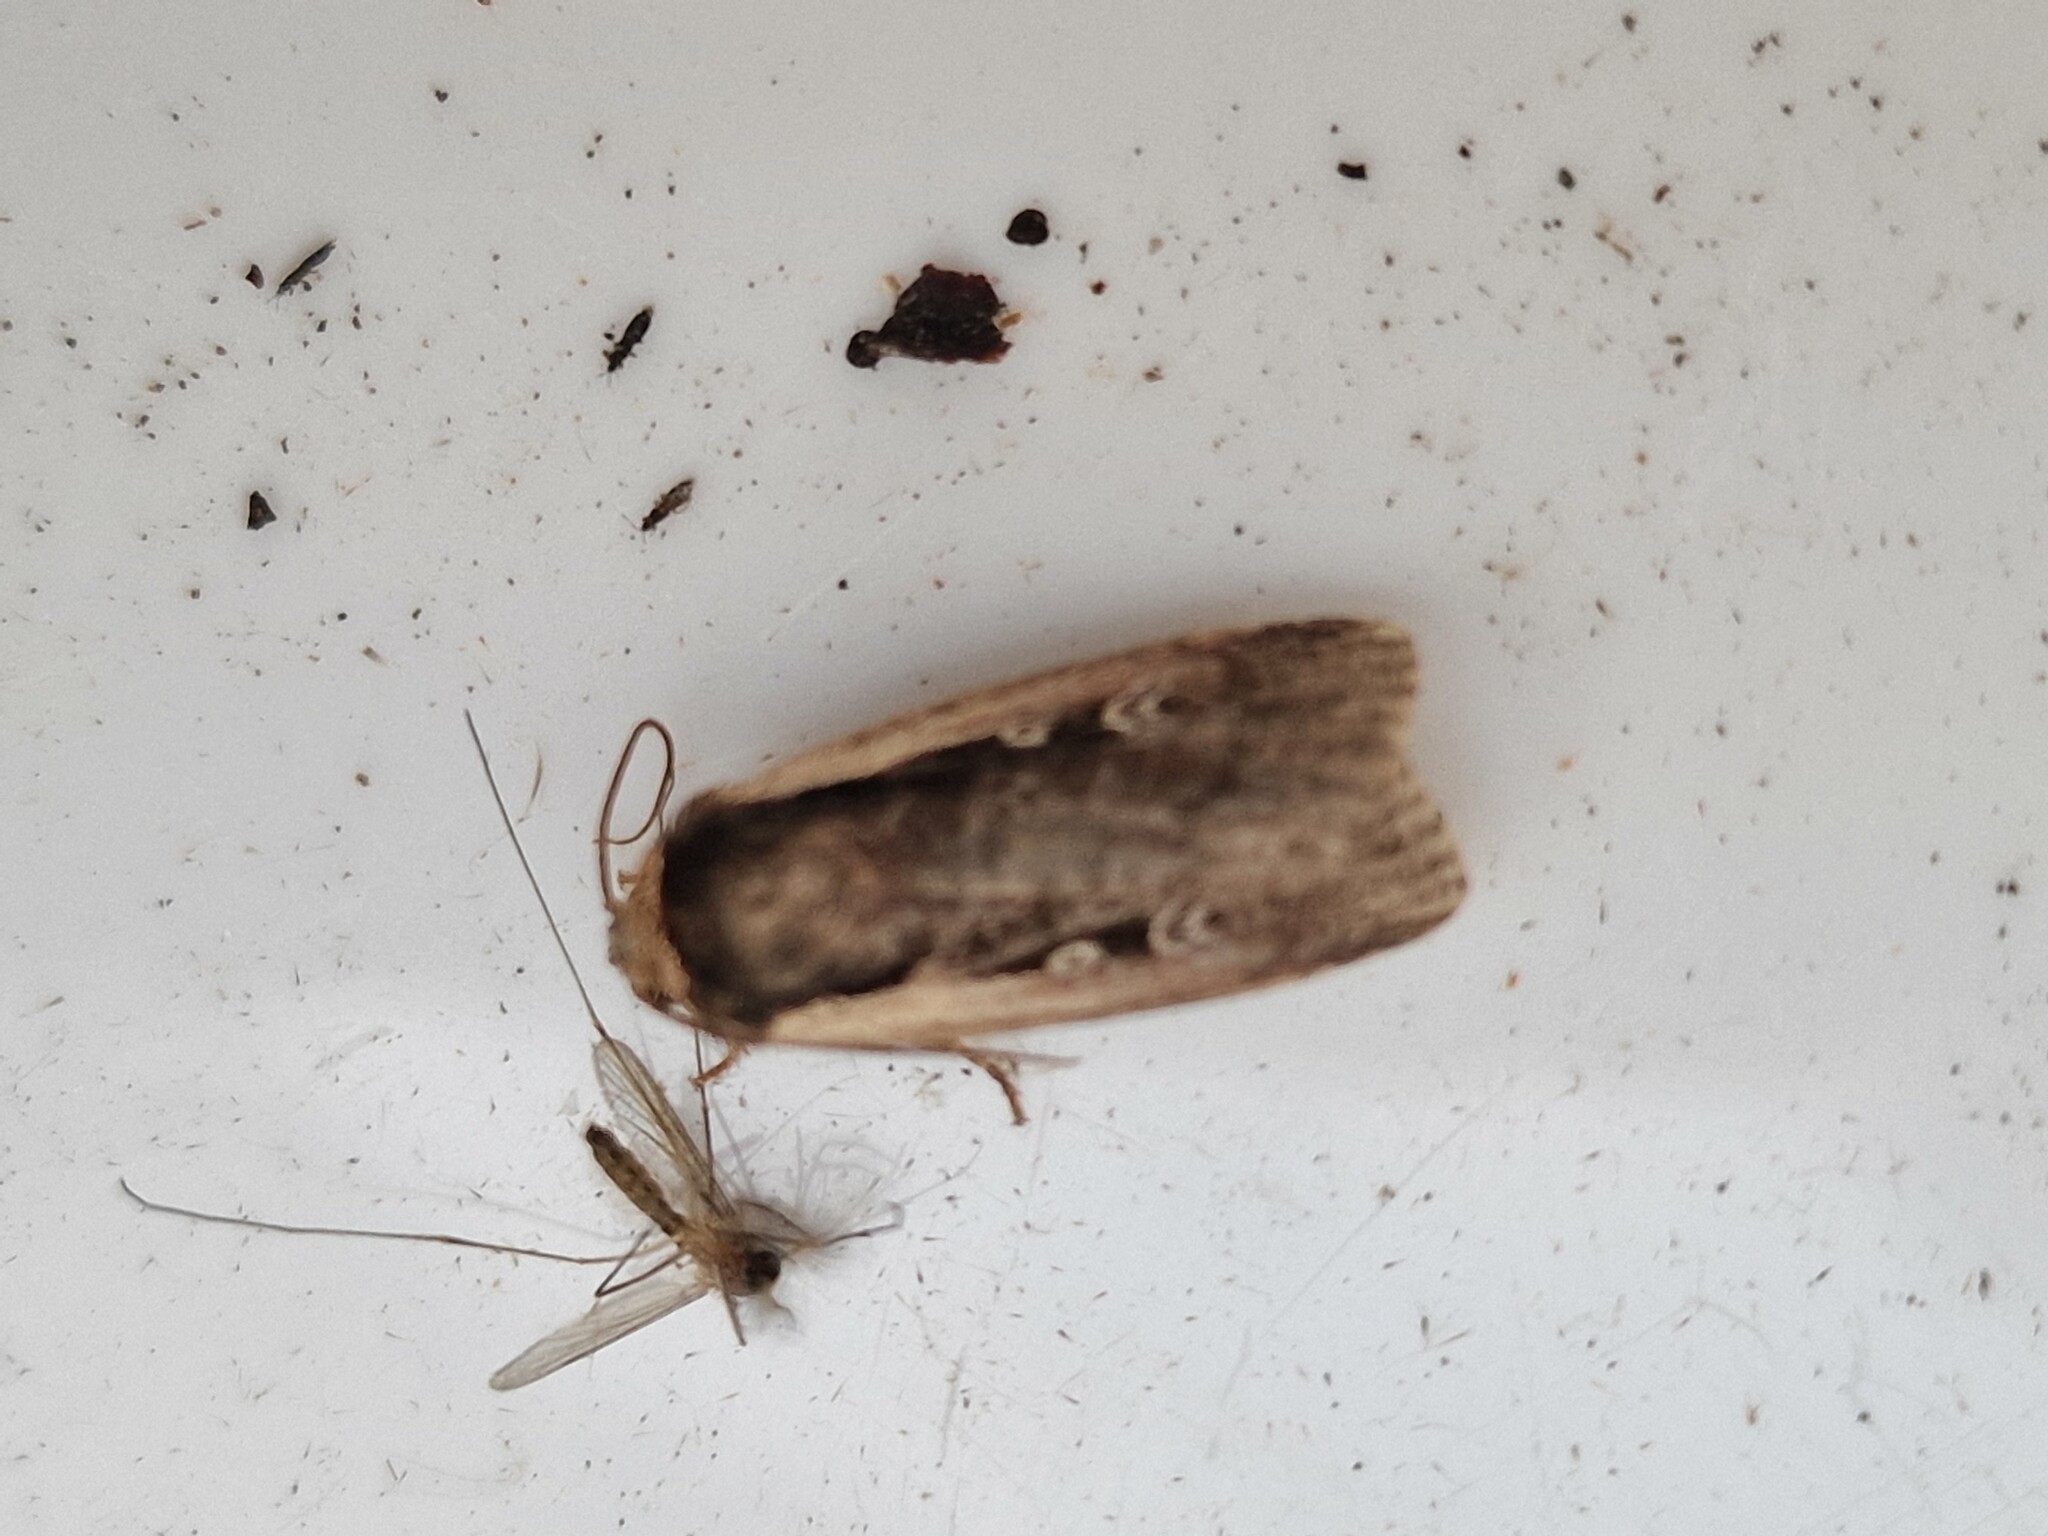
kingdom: Animalia
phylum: Arthropoda
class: Insecta
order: Lepidoptera
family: Noctuidae
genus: Ochropleura
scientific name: Ochropleura plecta
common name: Flame shoulder
